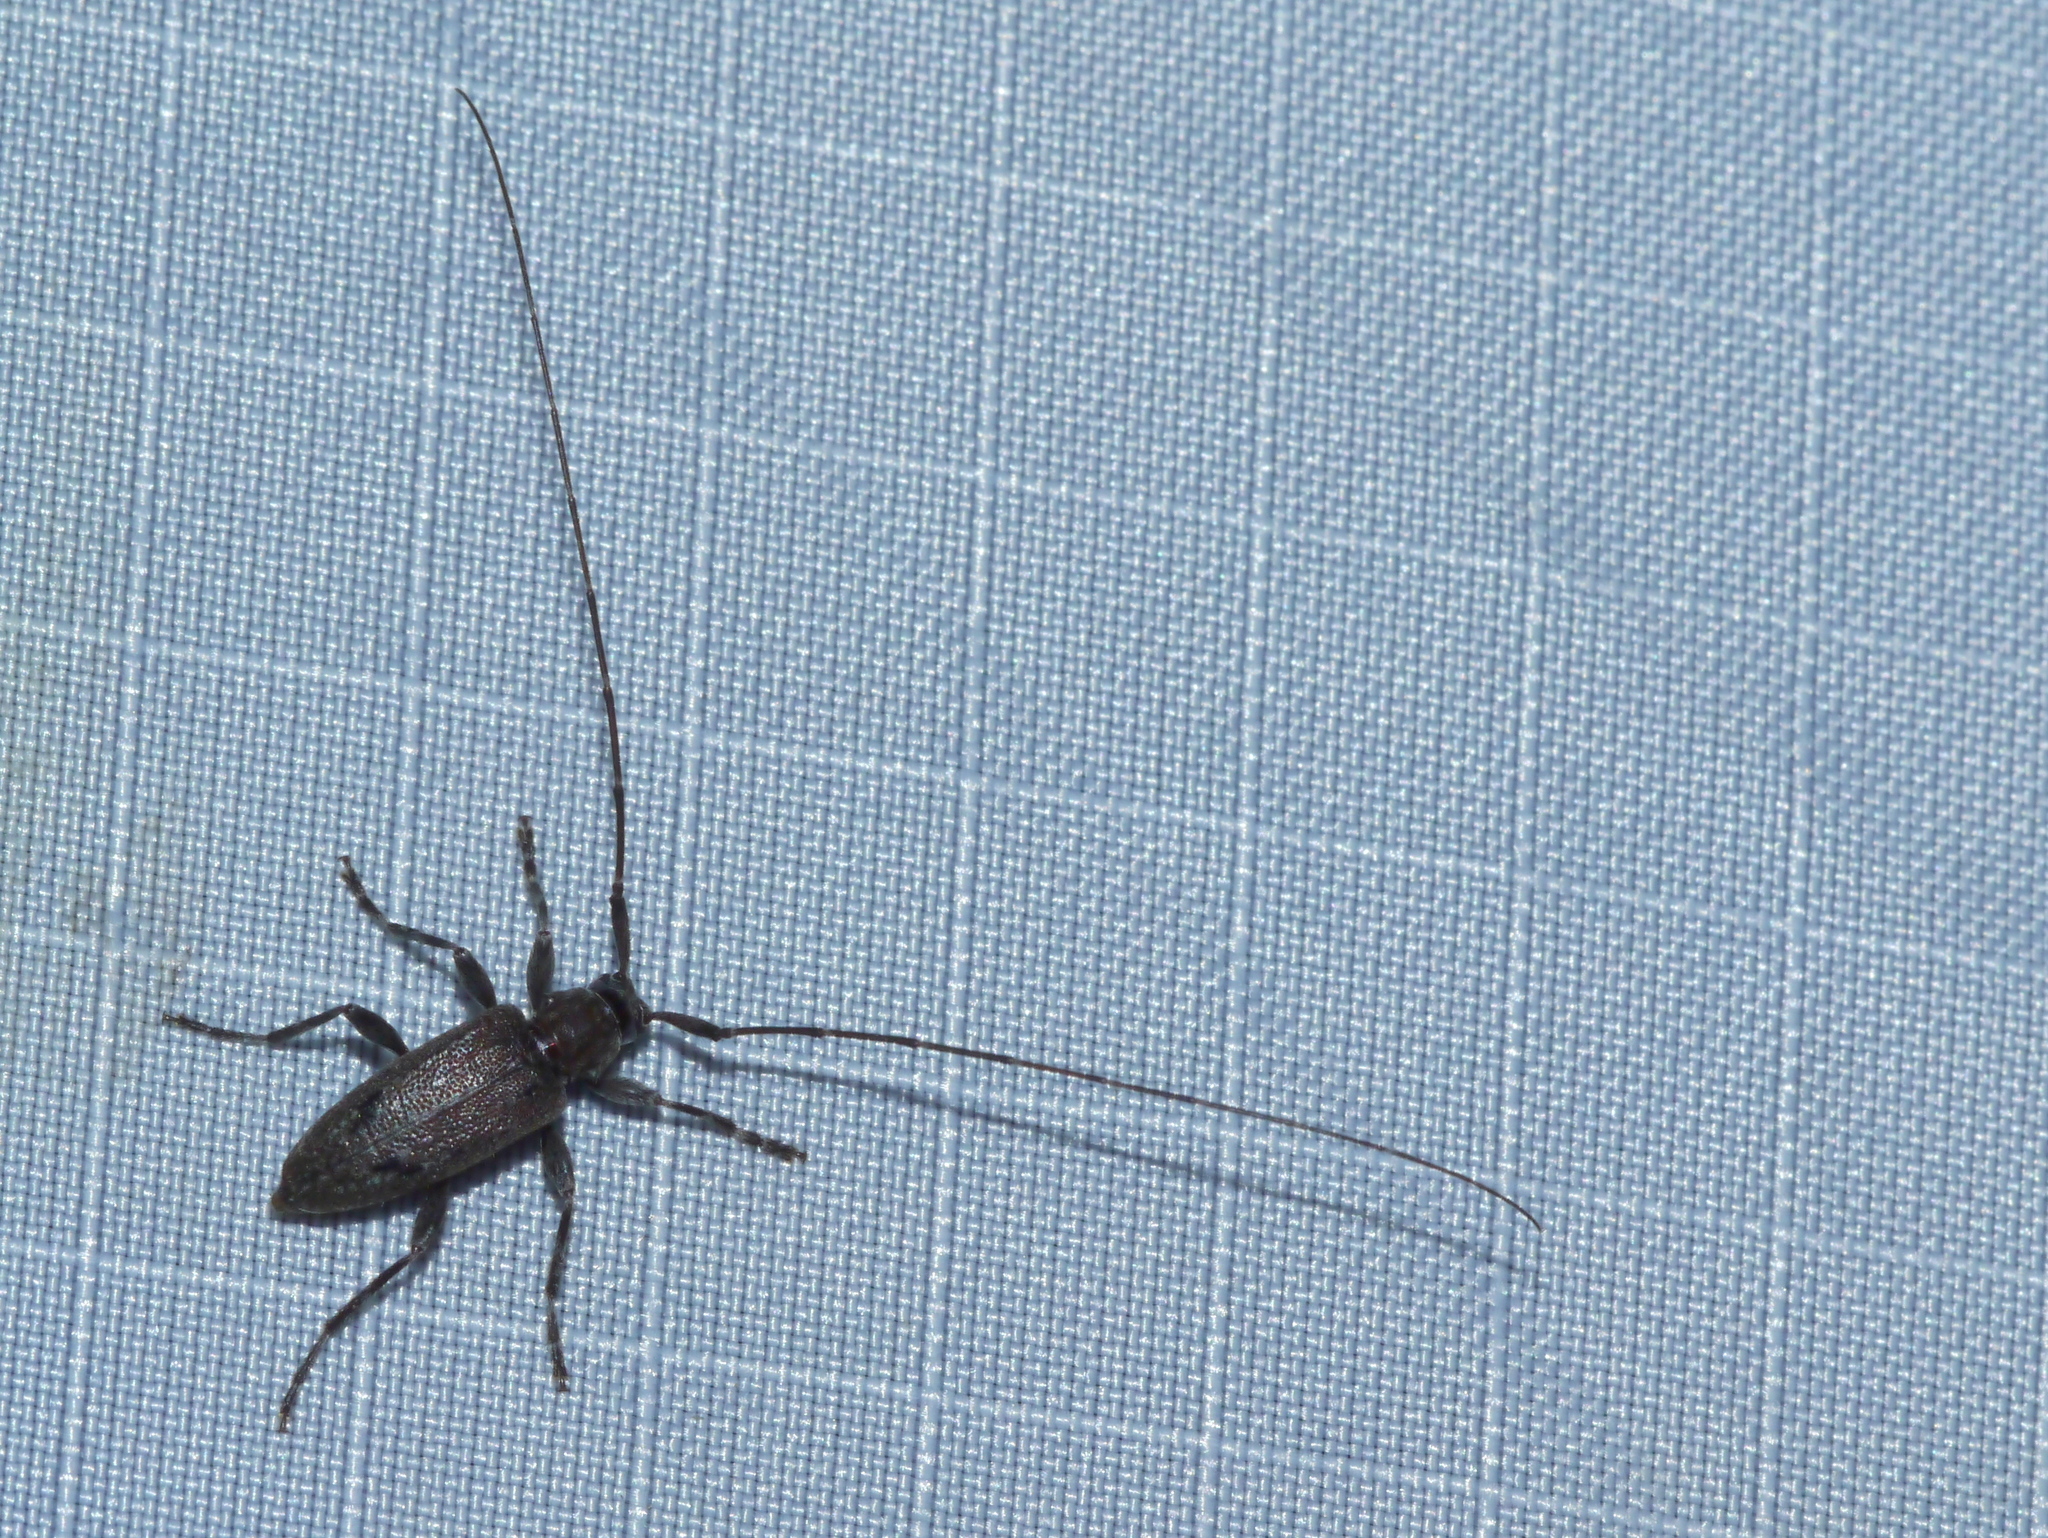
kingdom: Animalia
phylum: Arthropoda
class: Insecta
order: Coleoptera
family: Cerambycidae
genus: Eutrichillus
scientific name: Eutrichillus biguttatus
